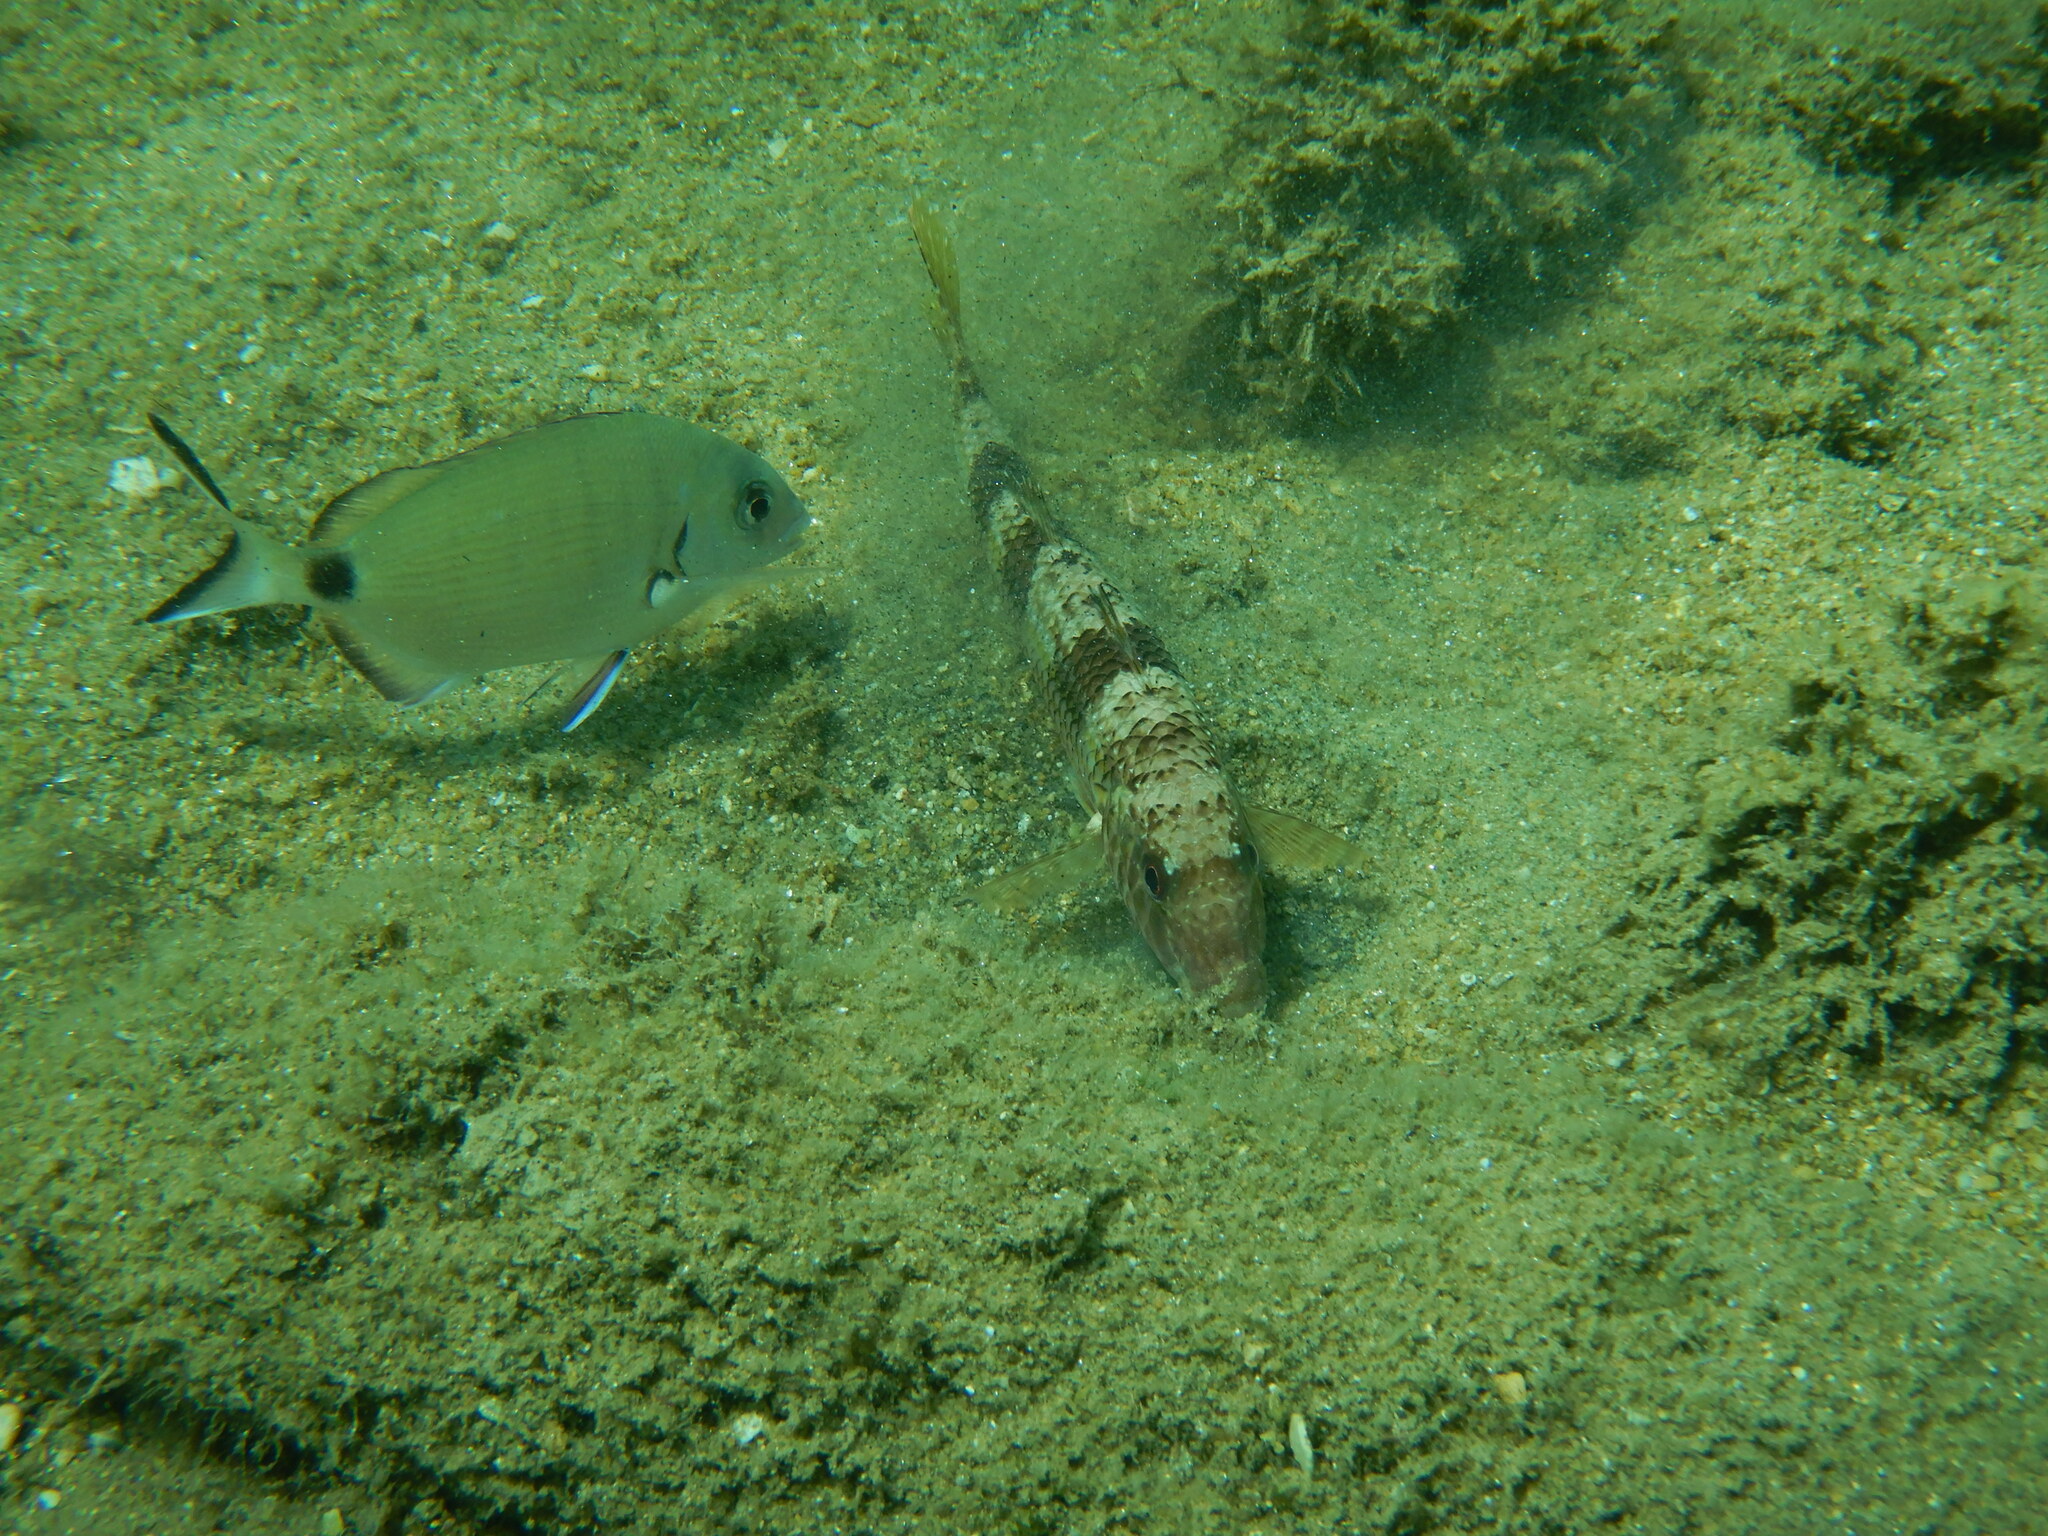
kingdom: Animalia
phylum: Chordata
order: Perciformes
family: Sparidae
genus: Diplodus
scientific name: Diplodus sargus
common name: White seabream
